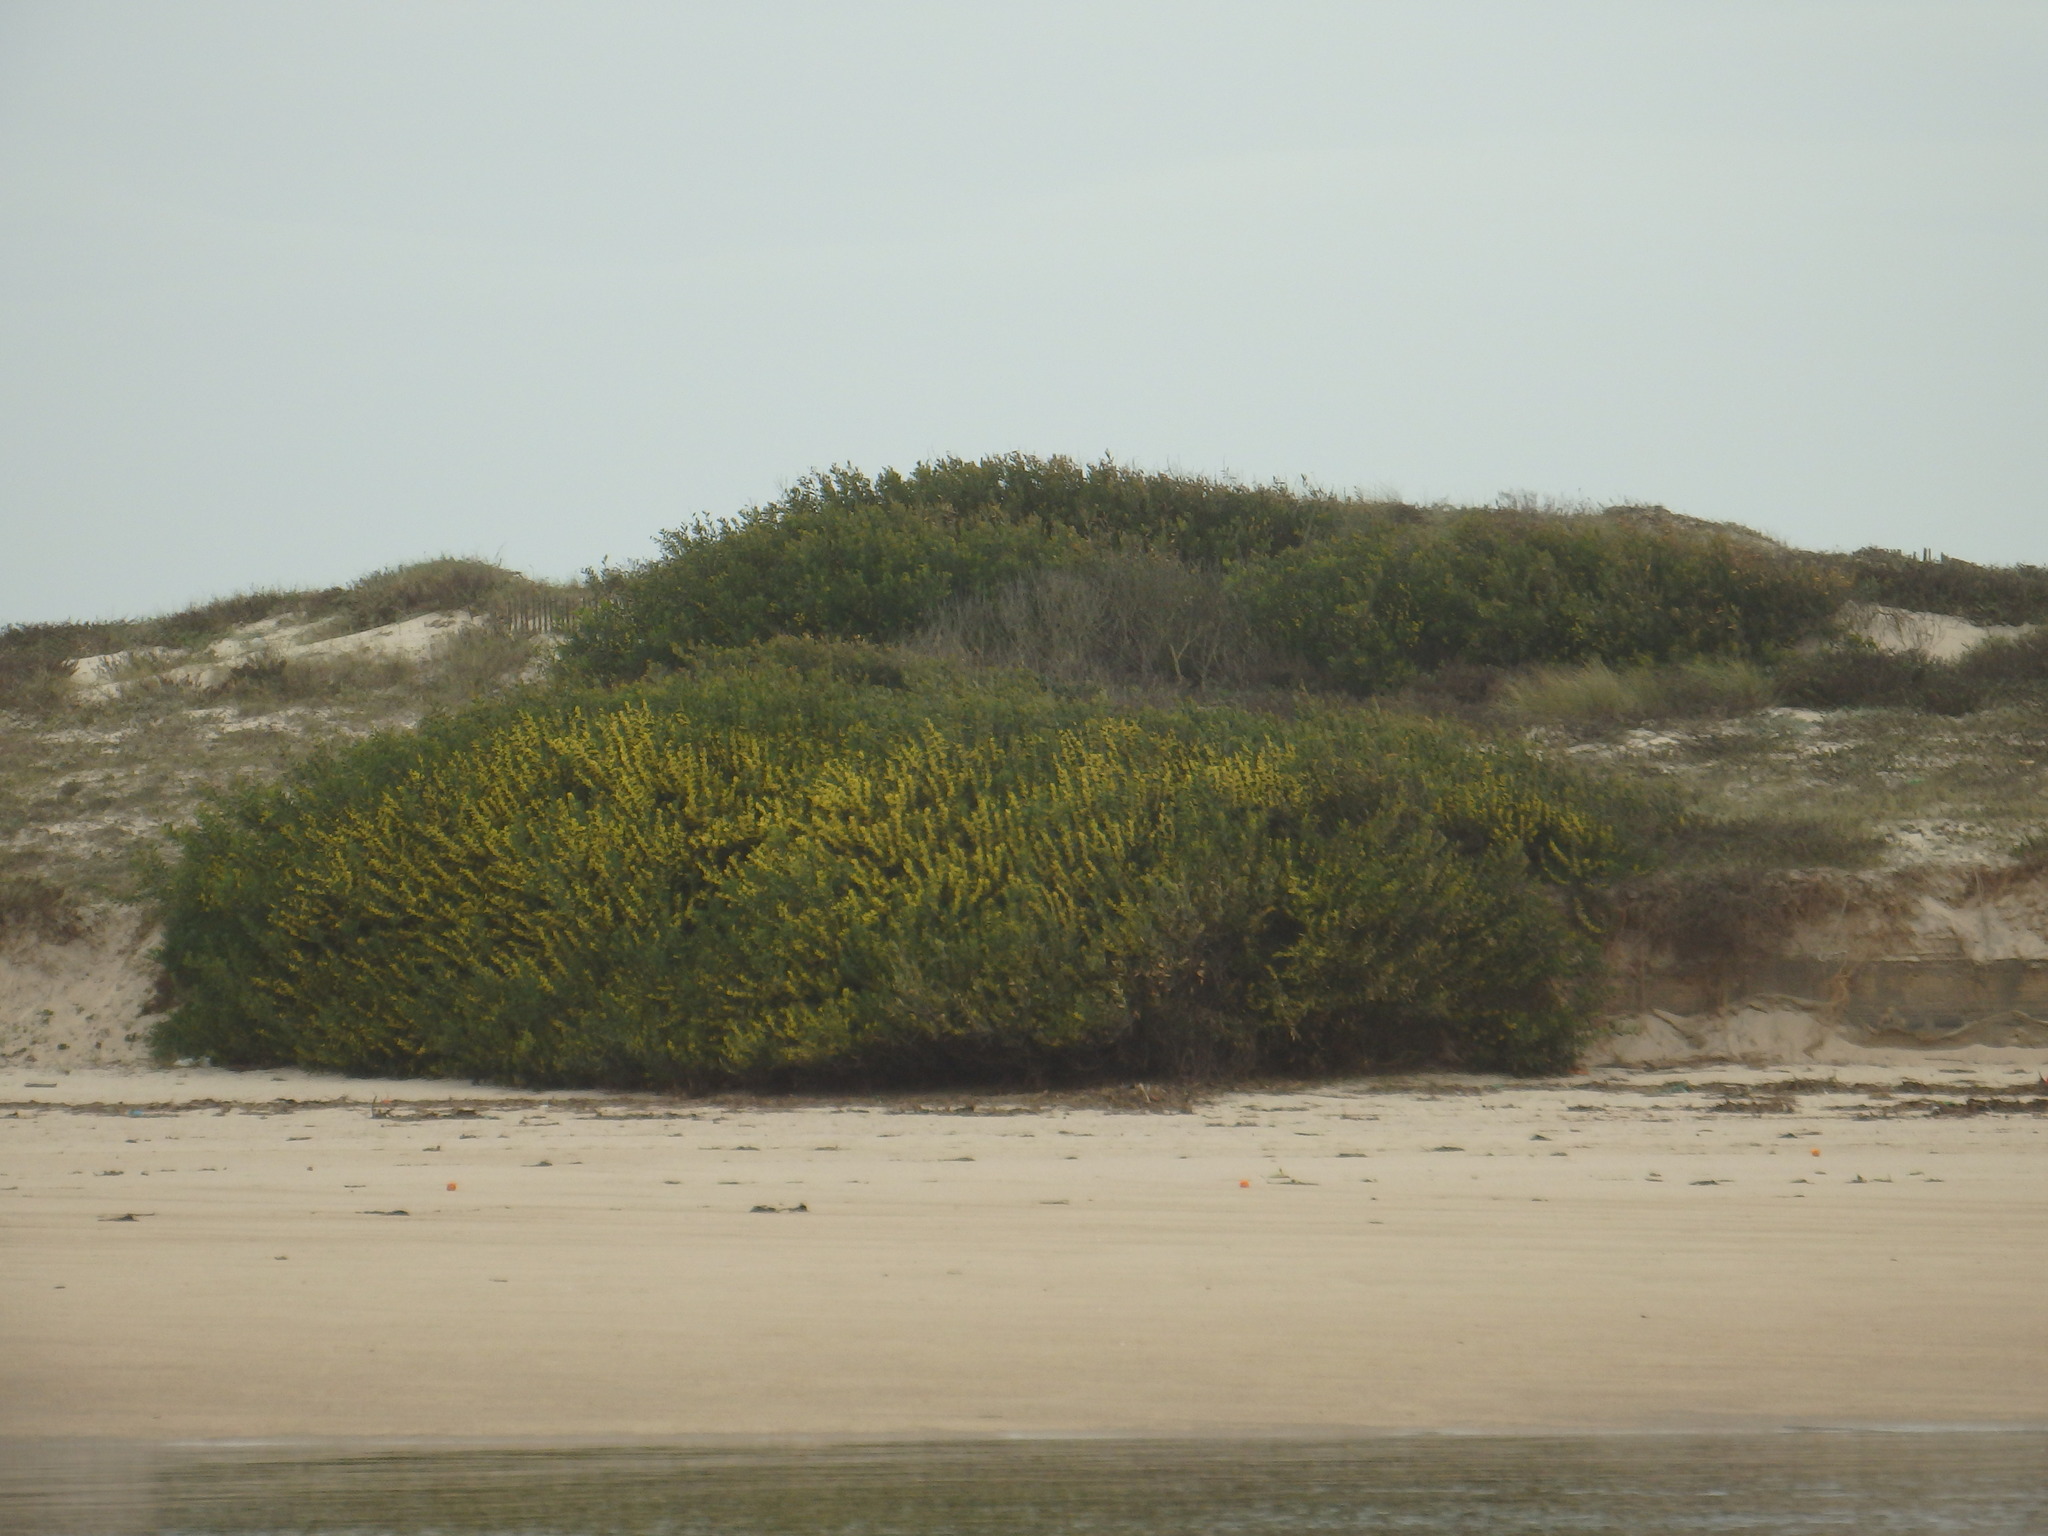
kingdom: Plantae
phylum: Tracheophyta
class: Magnoliopsida
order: Fabales
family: Fabaceae
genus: Acacia
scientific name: Acacia longifolia
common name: Sydney golden wattle
